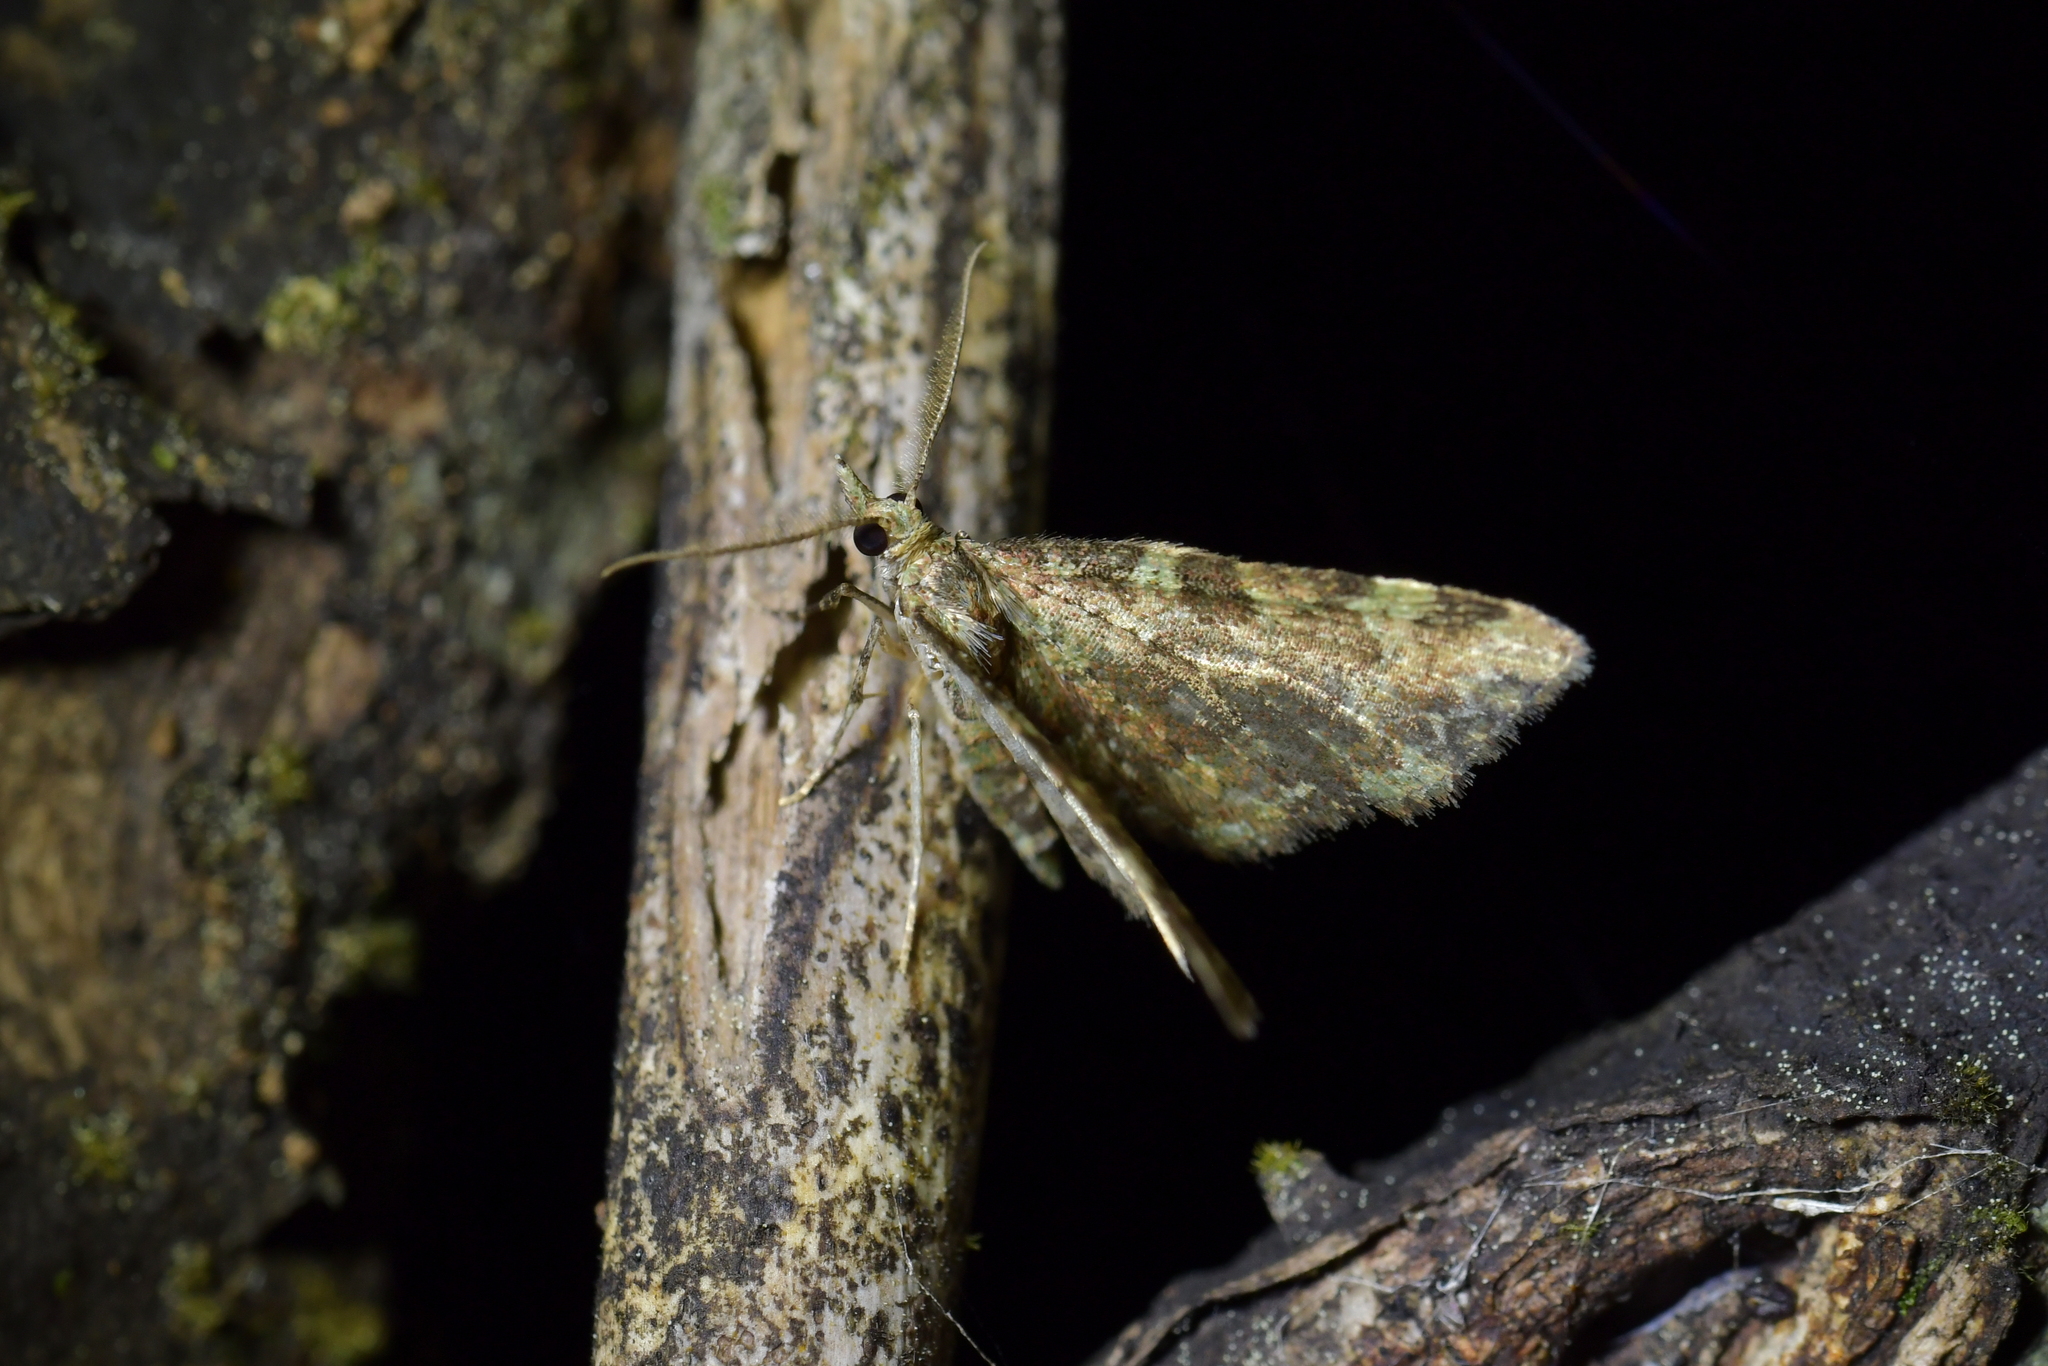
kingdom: Animalia
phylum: Arthropoda
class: Insecta
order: Lepidoptera
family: Geometridae
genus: Pasiphila
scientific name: Pasiphila plinthina
